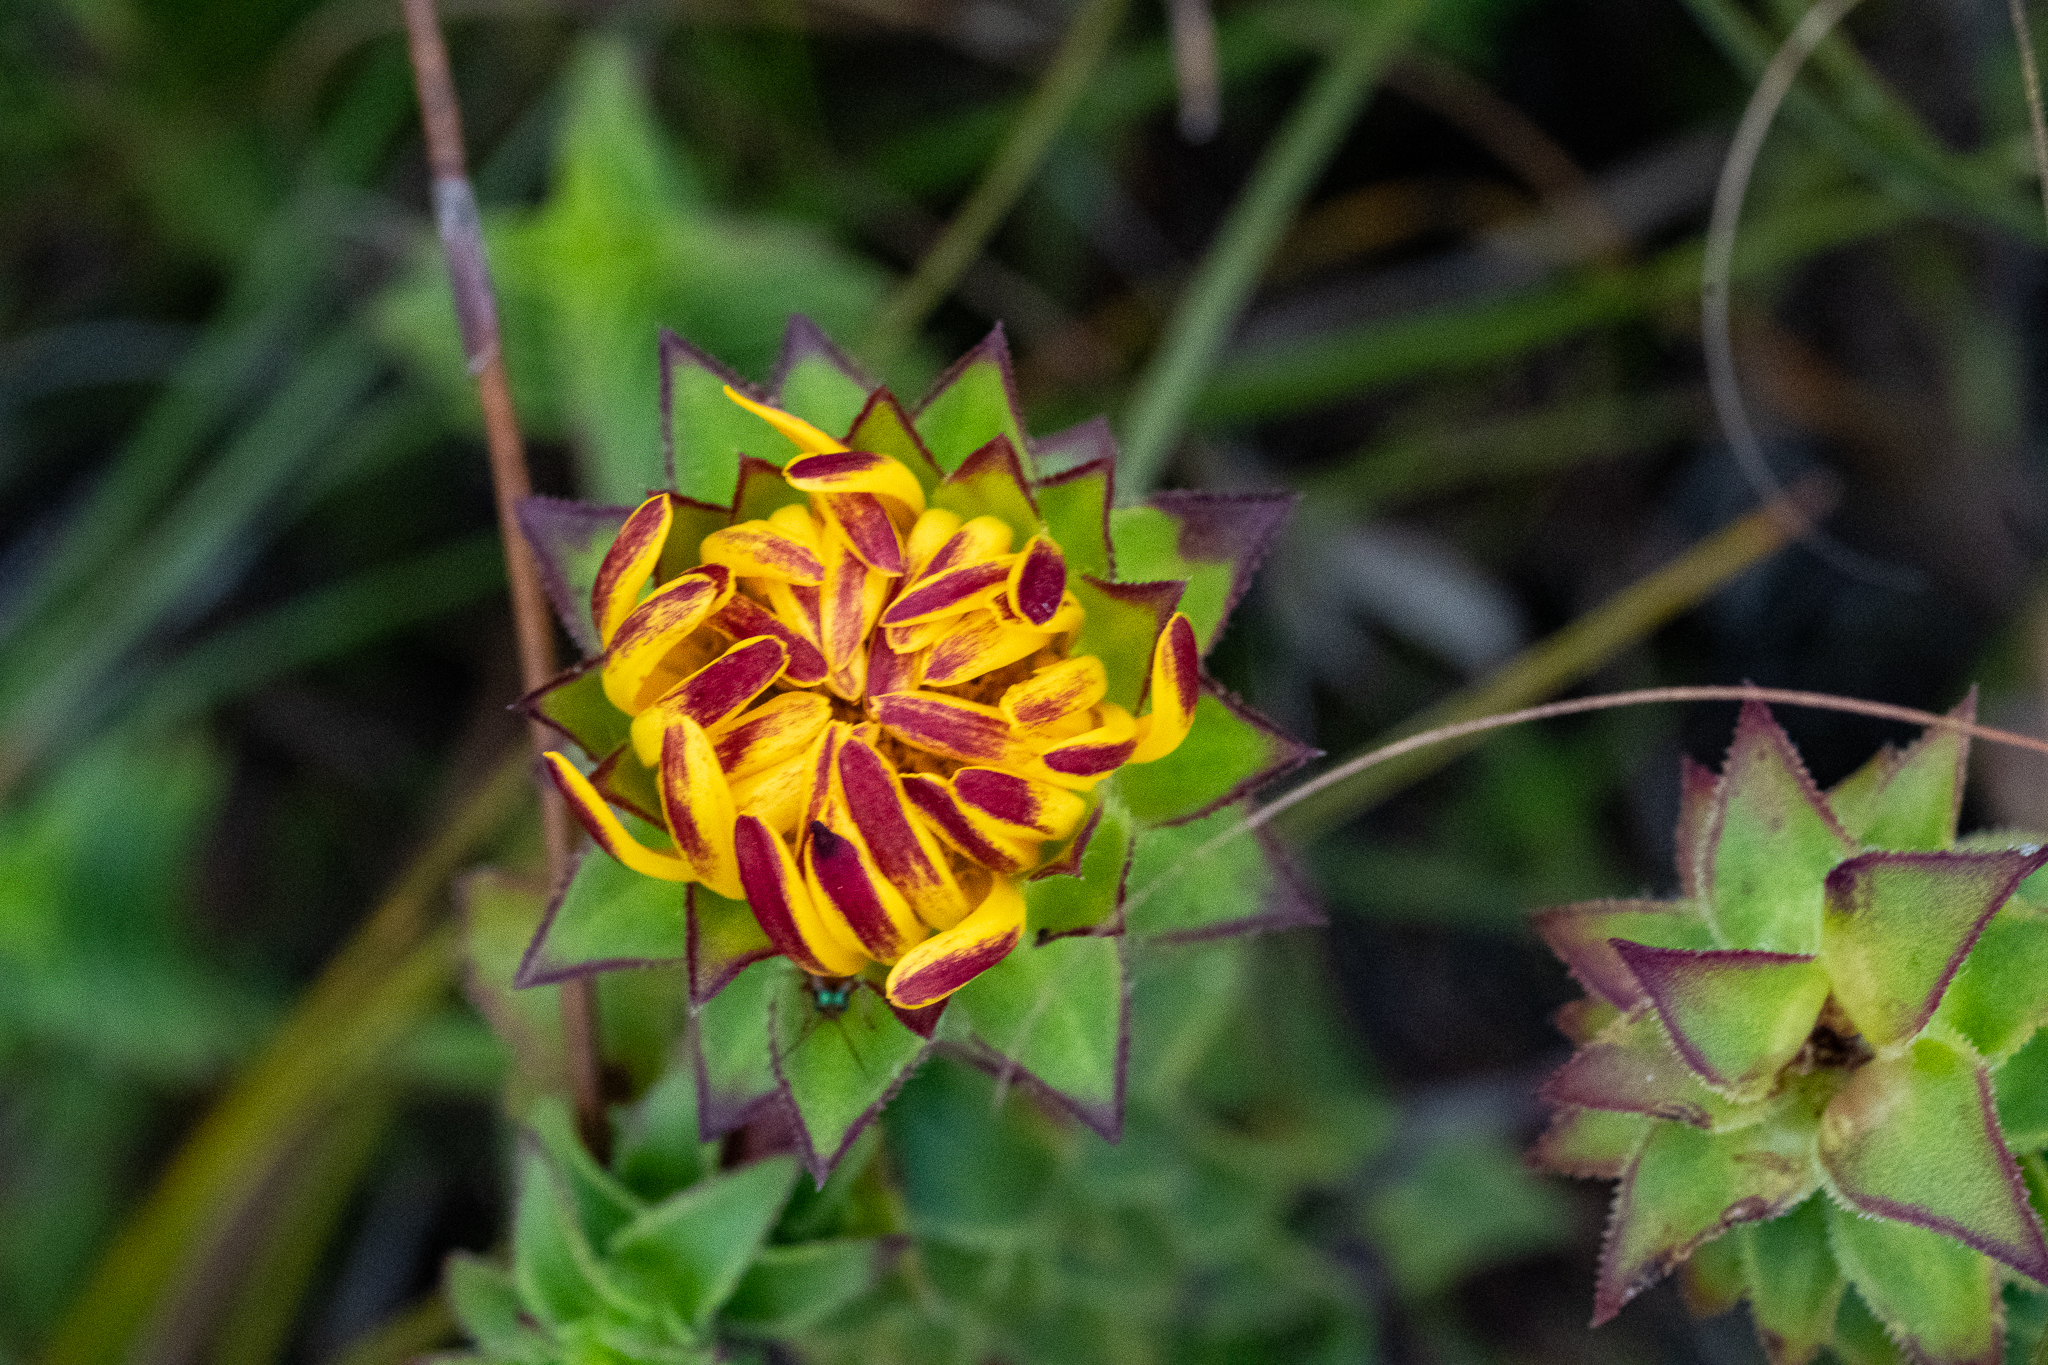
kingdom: Plantae
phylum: Tracheophyta
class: Magnoliopsida
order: Asterales
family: Asteraceae
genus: Oedera
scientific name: Oedera imbricata
